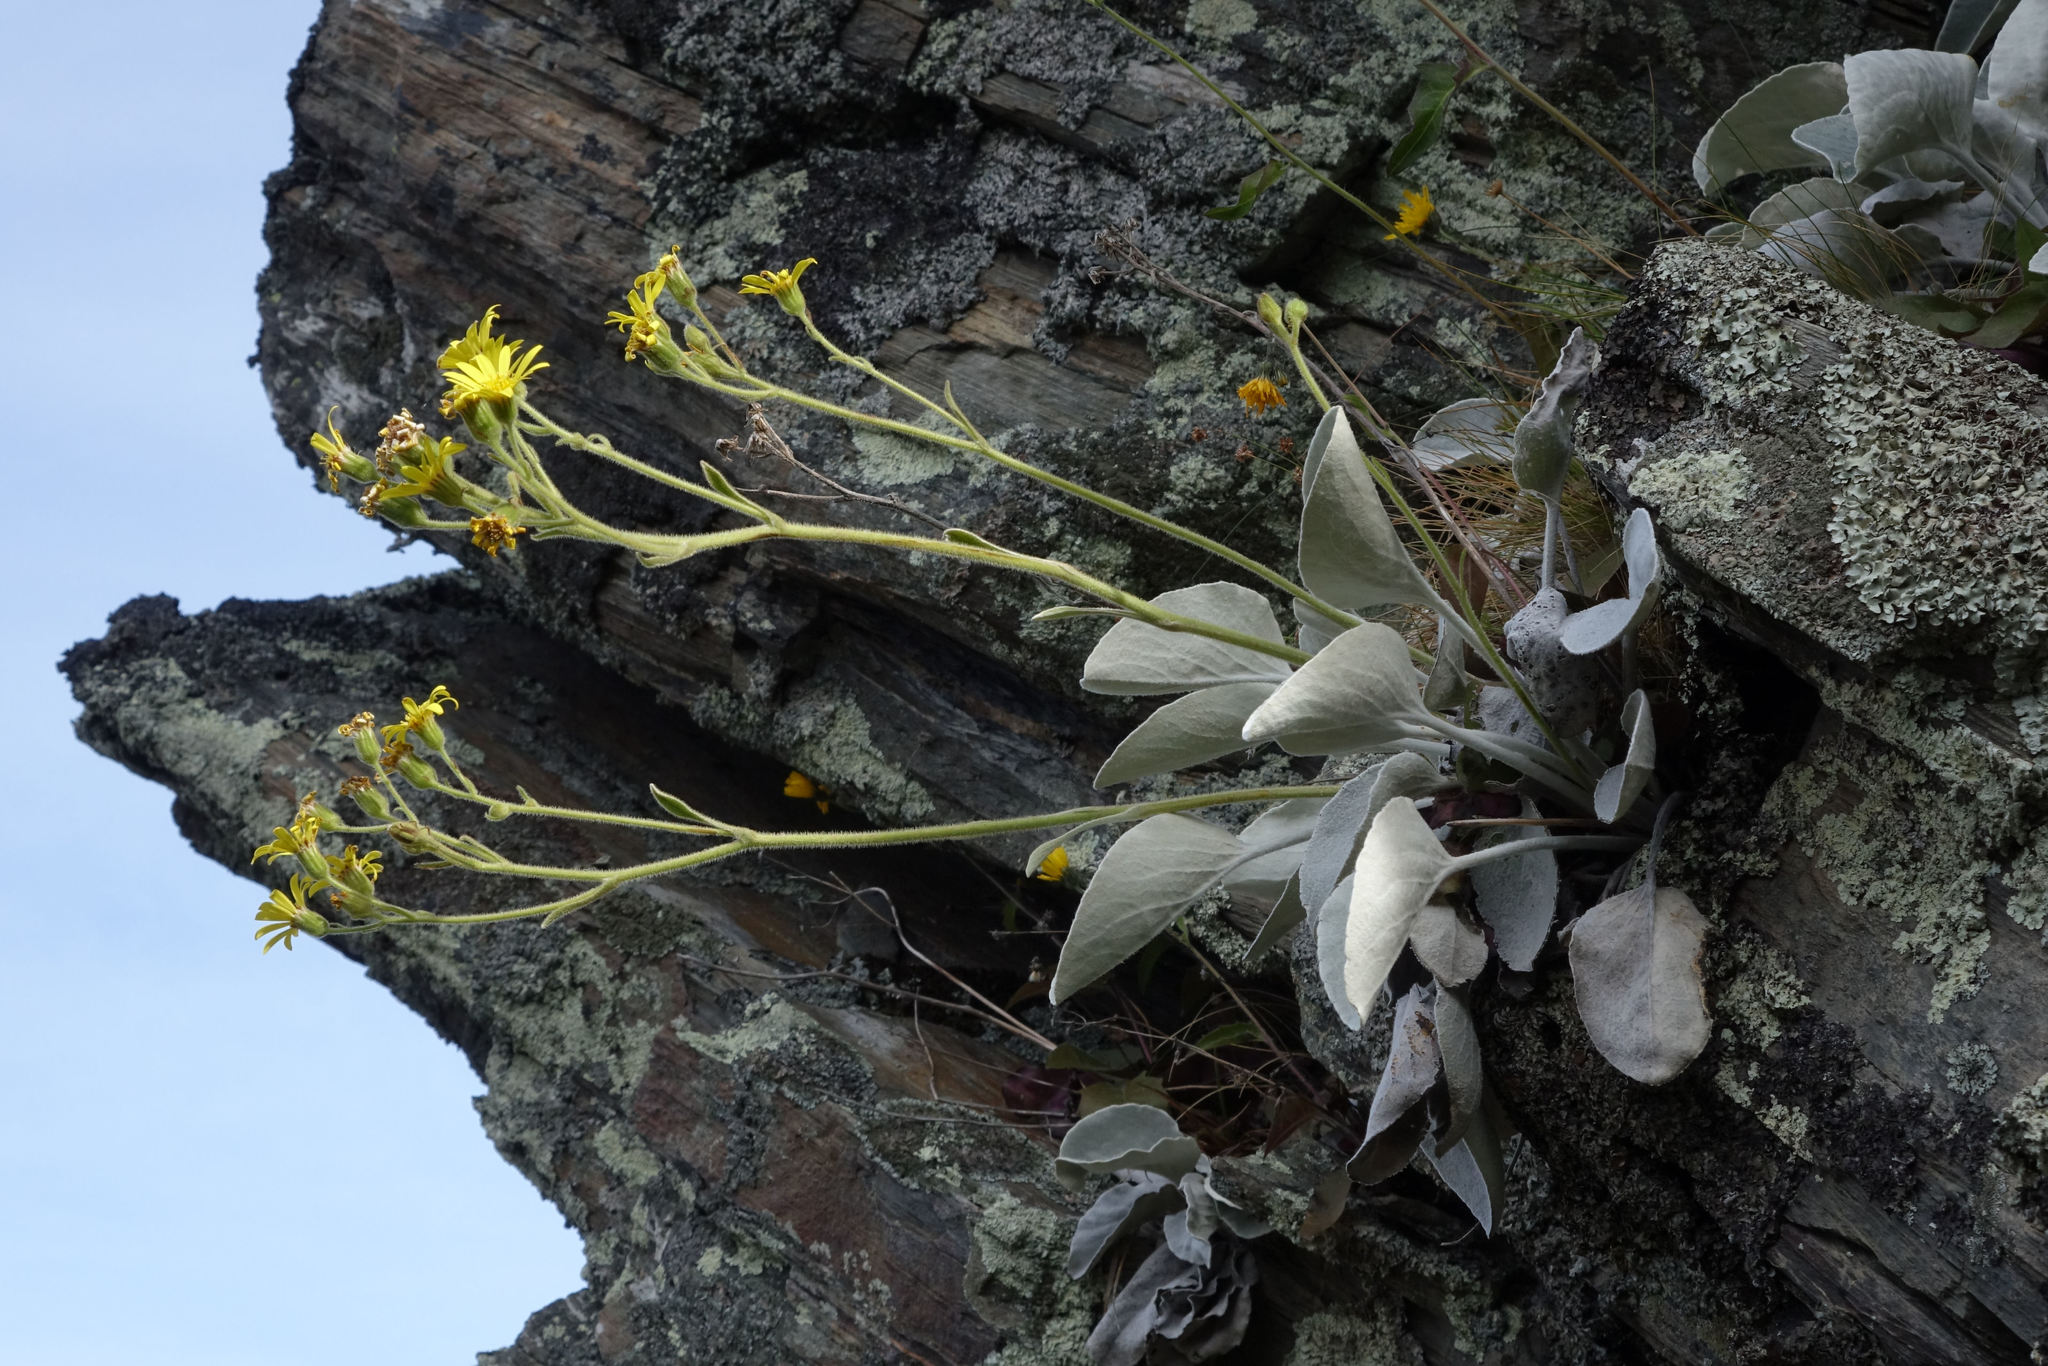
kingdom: Plantae
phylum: Tracheophyta
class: Magnoliopsida
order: Asterales
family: Asteraceae
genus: Brachyglottis
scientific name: Brachyglottis haastii
